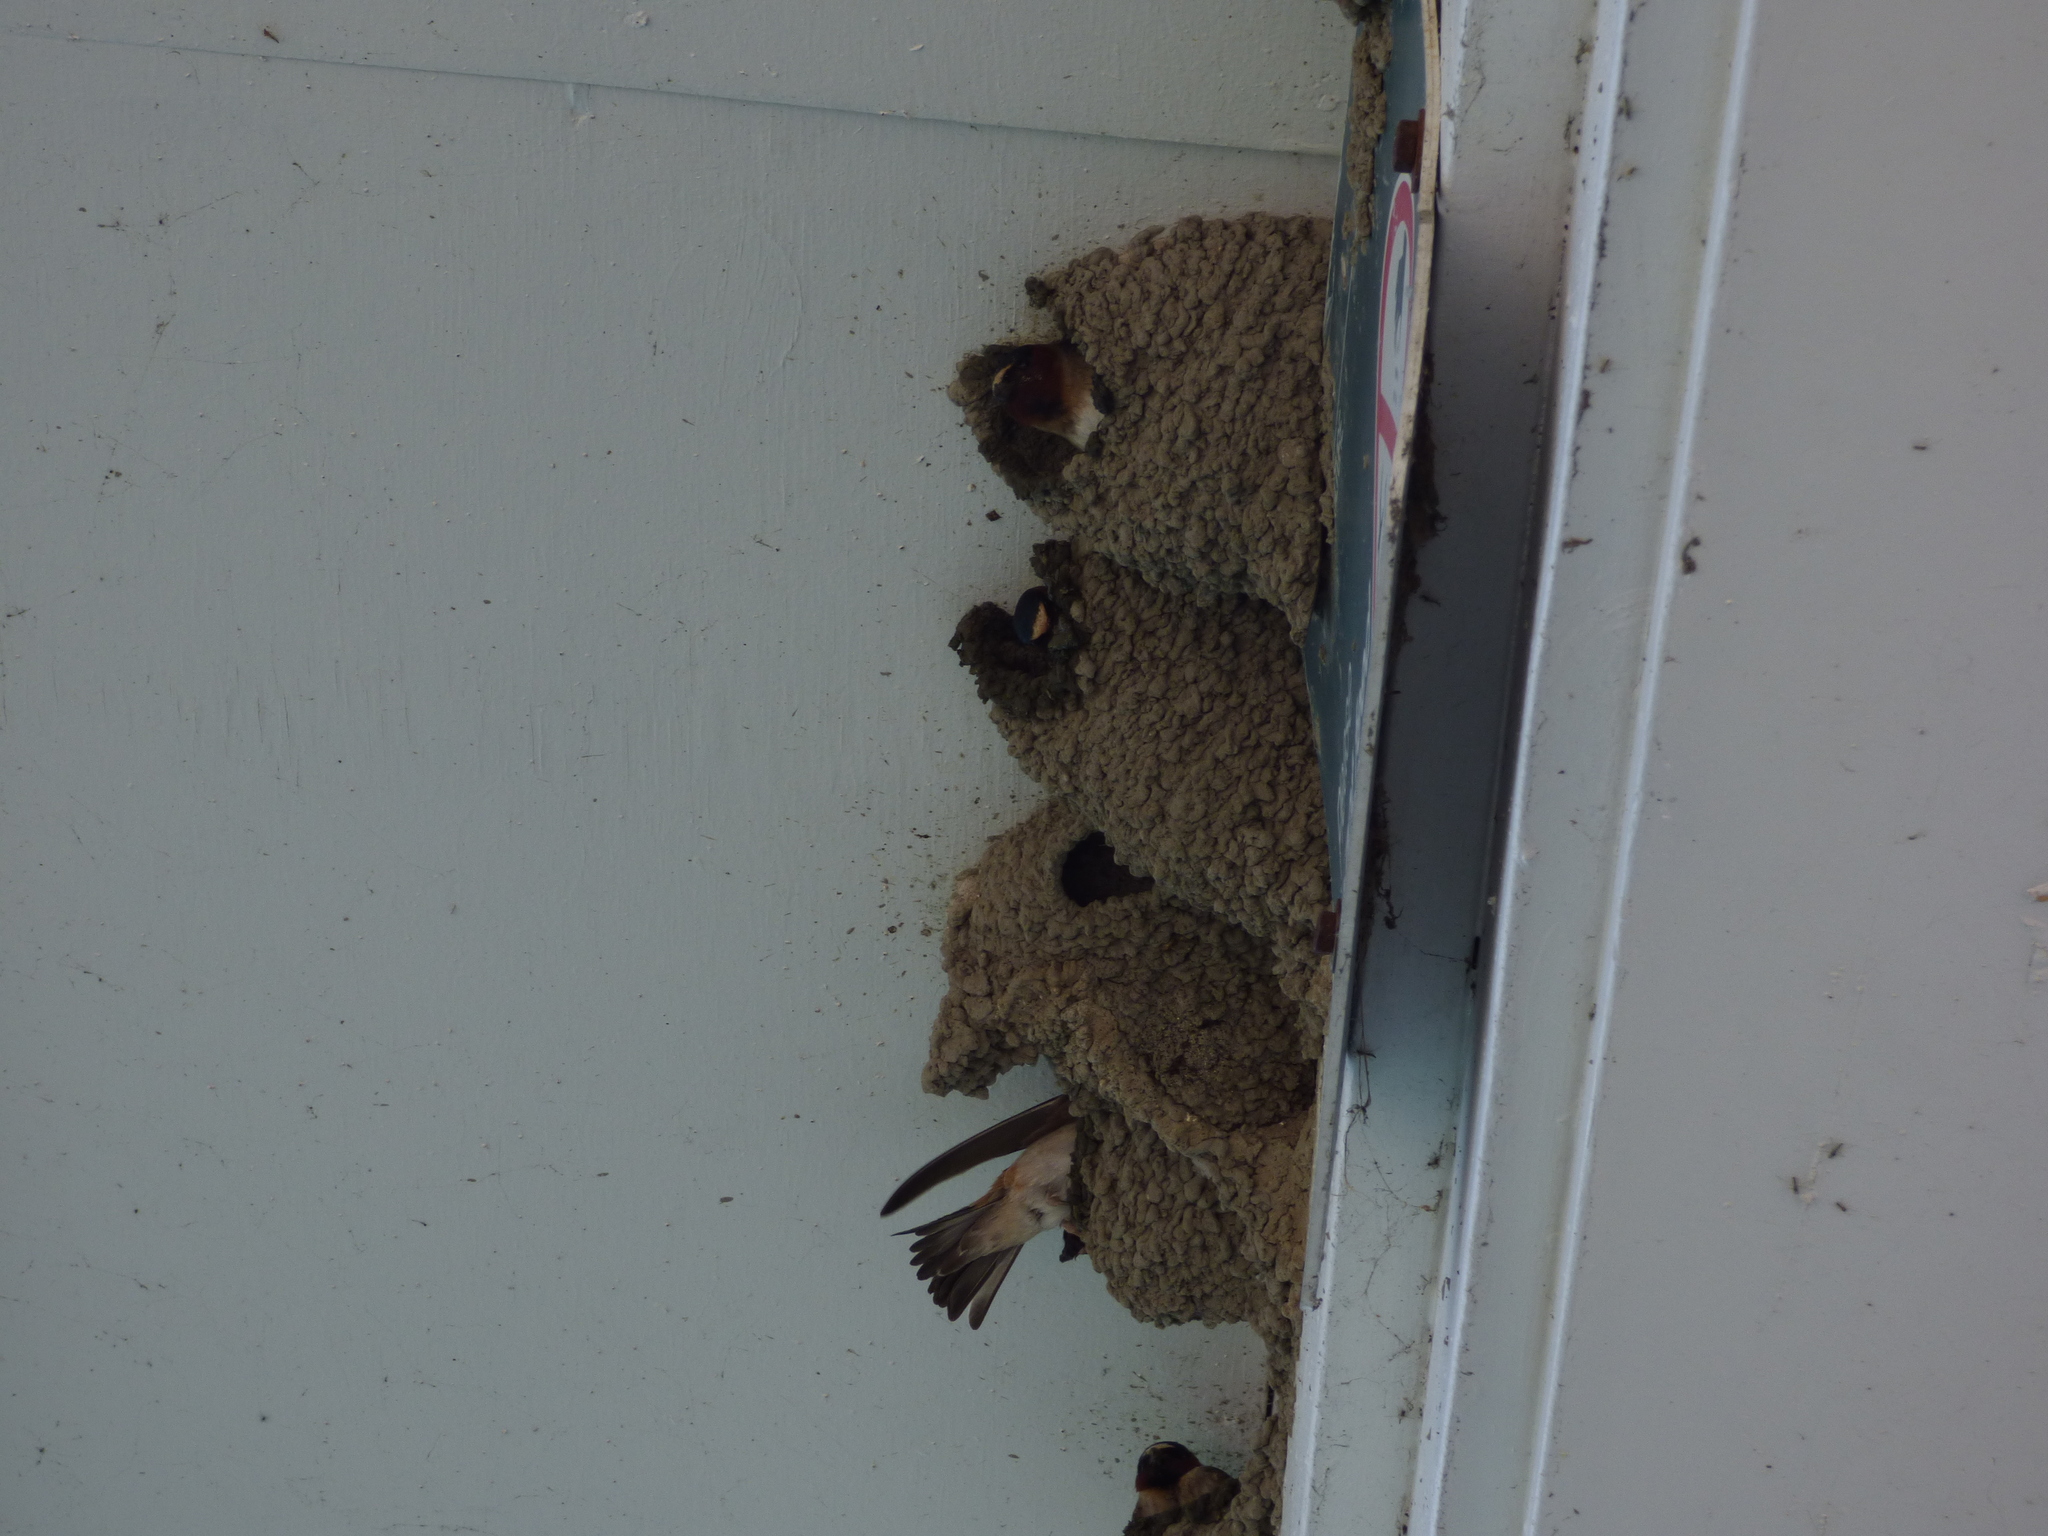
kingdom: Animalia
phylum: Chordata
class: Aves
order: Passeriformes
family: Hirundinidae
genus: Petrochelidon
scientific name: Petrochelidon pyrrhonota
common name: American cliff swallow
